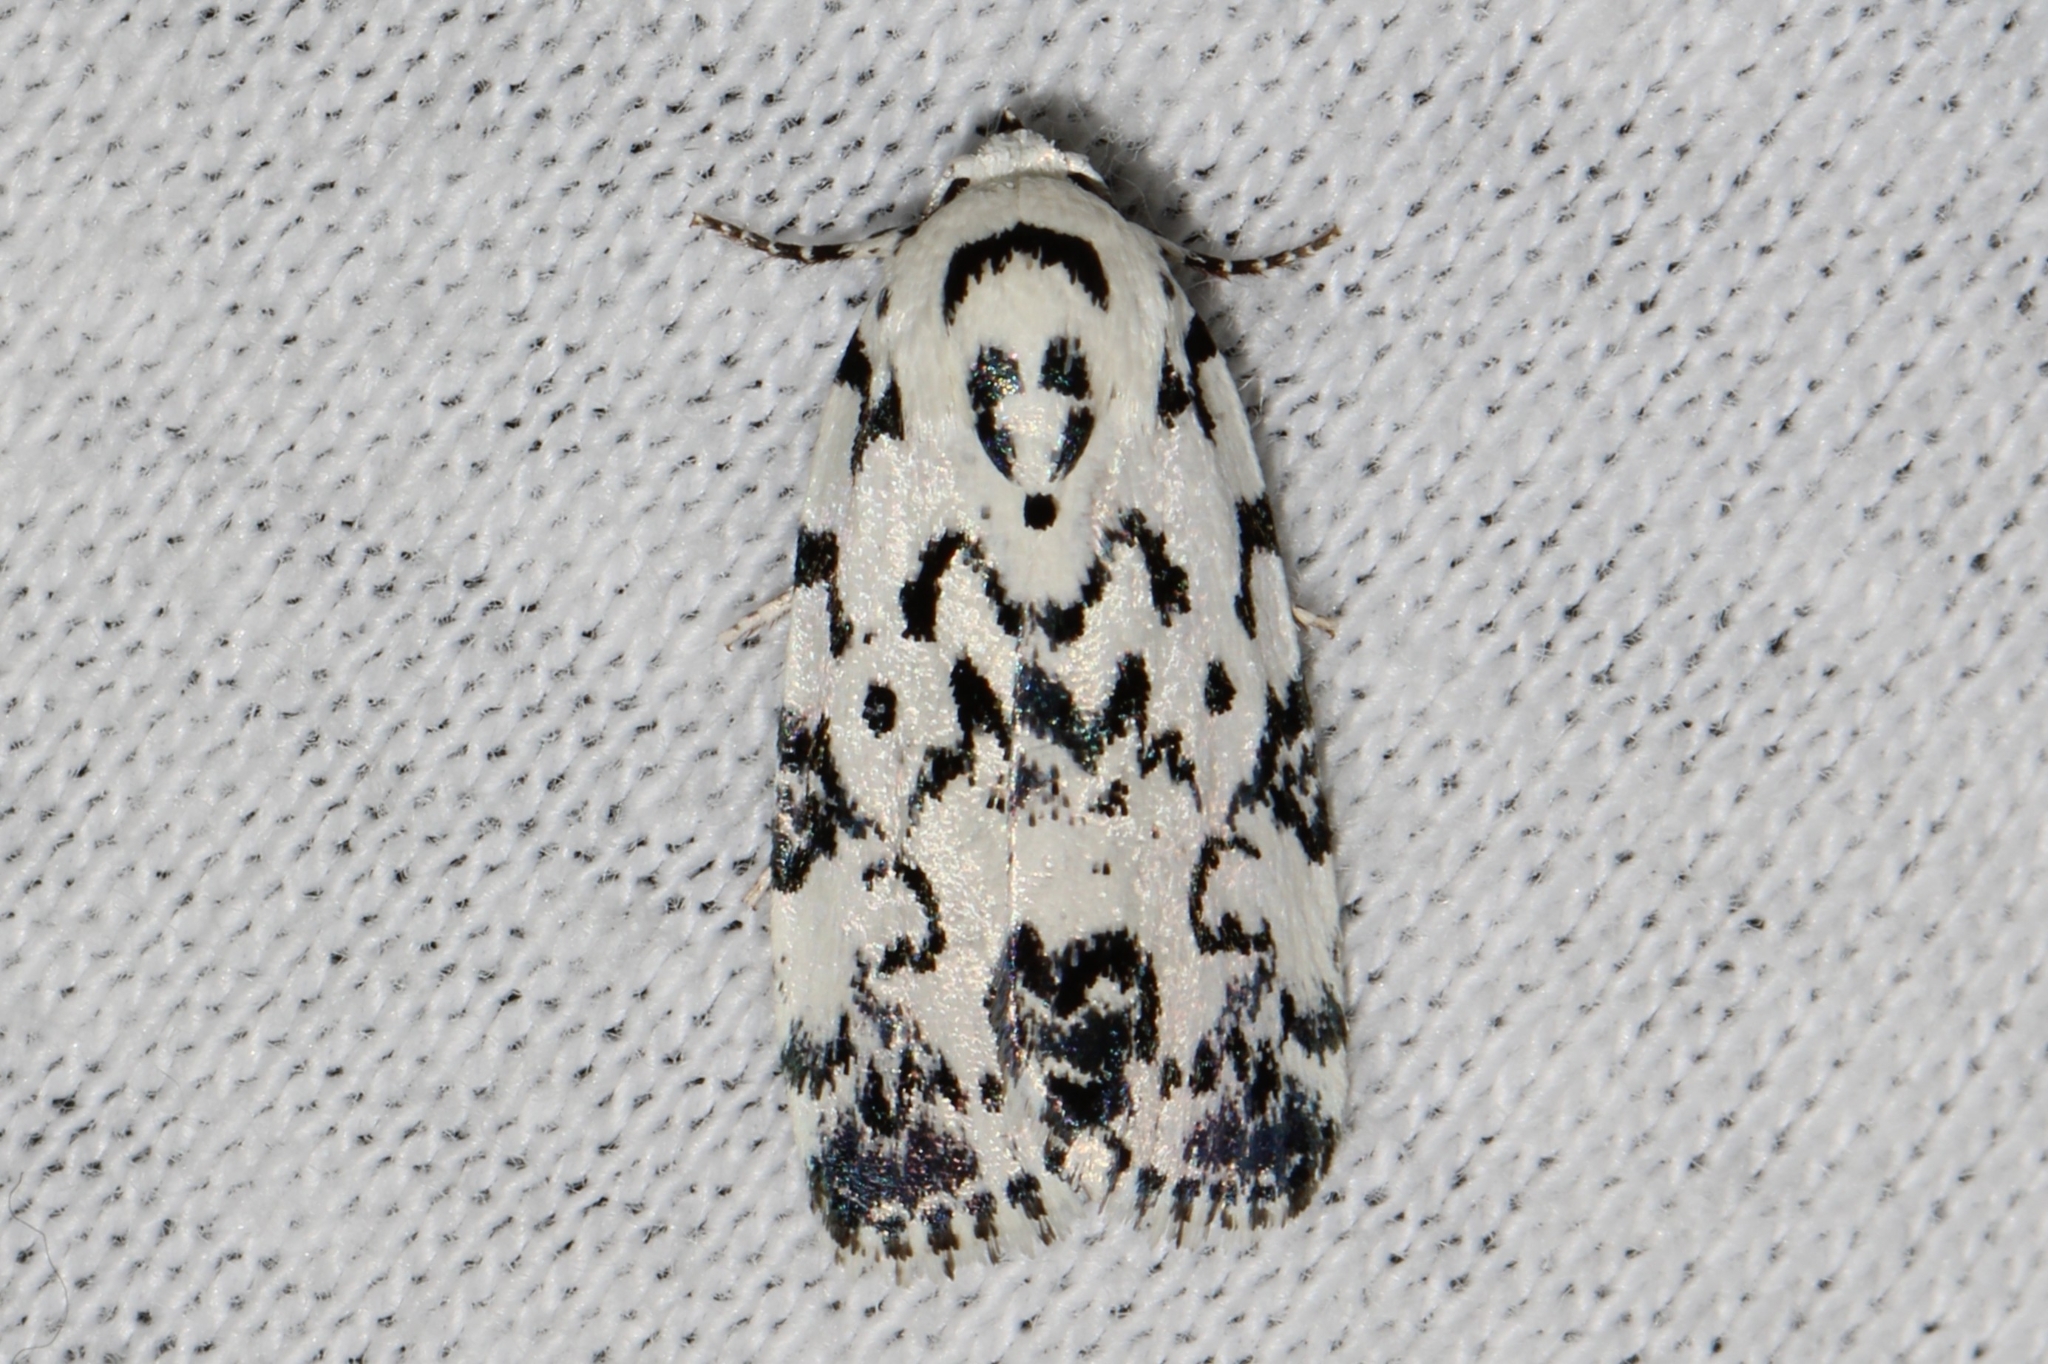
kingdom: Animalia
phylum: Arthropoda
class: Insecta
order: Lepidoptera
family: Noctuidae
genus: Polygrammate
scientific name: Polygrammate hebraeicum
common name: Hebrew moth
